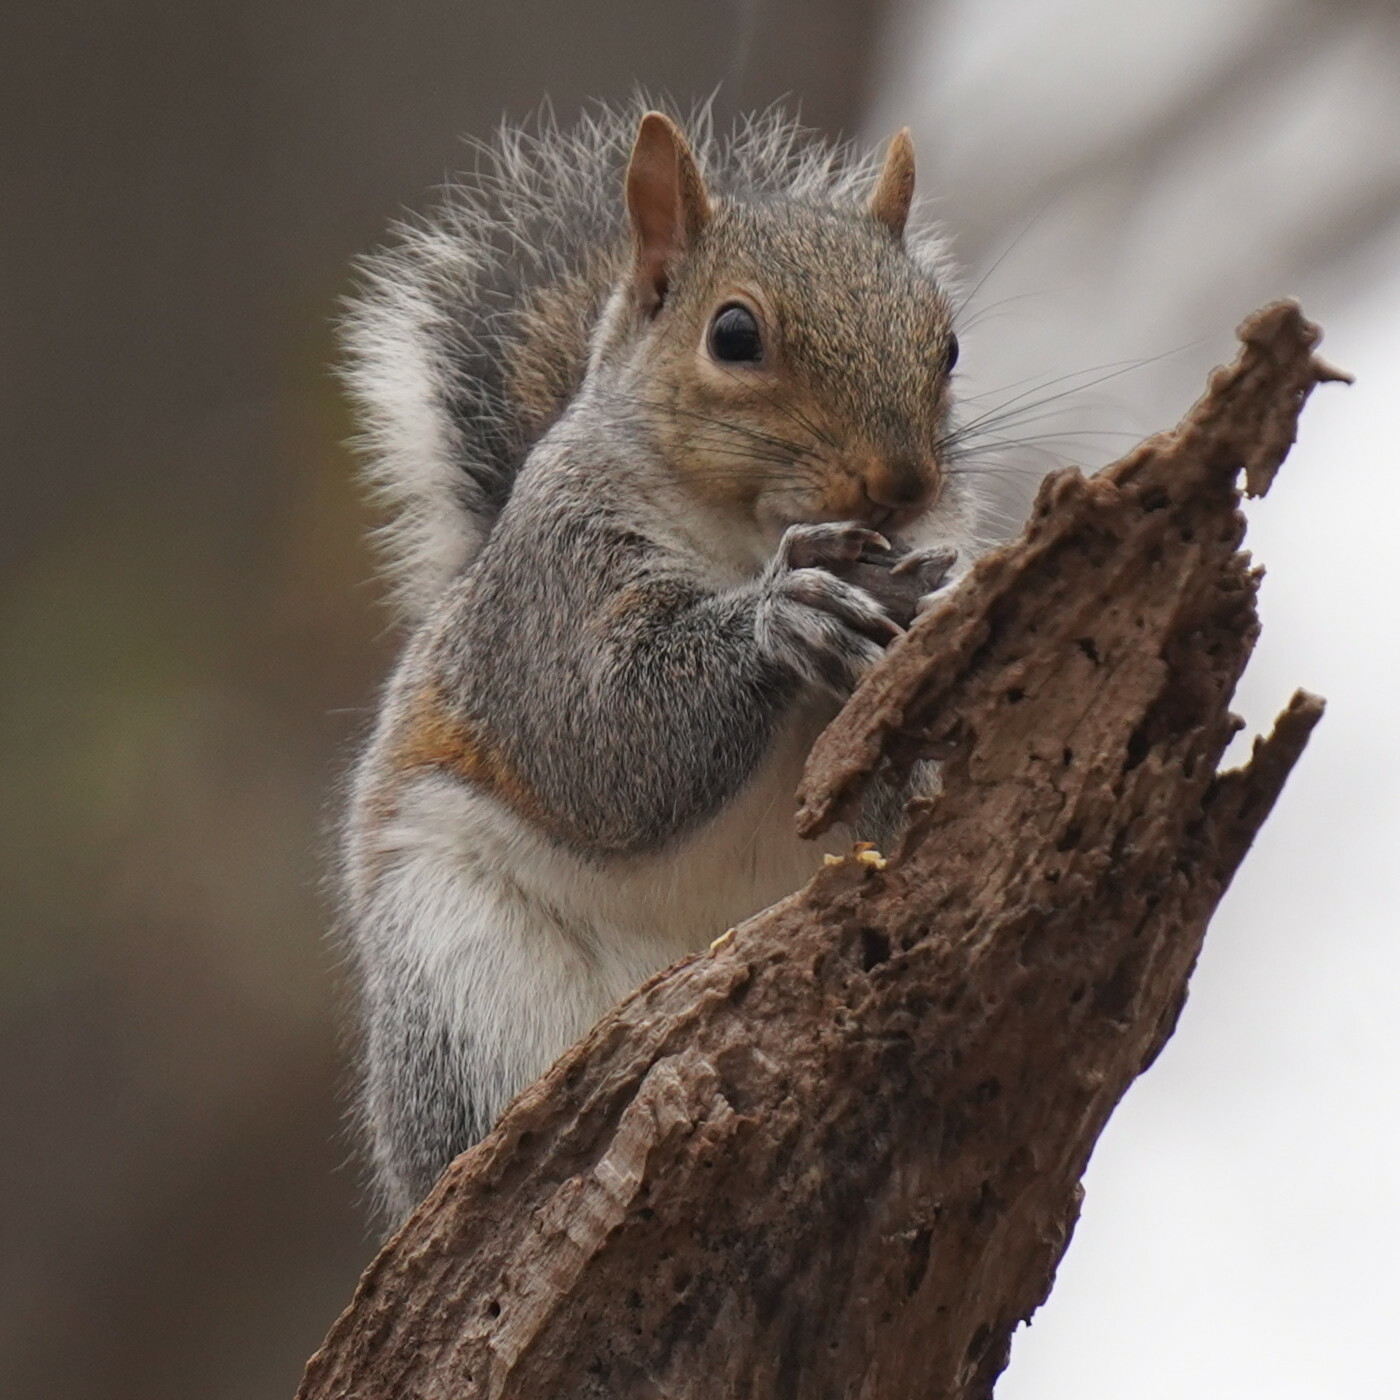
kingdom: Animalia
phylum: Chordata
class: Mammalia
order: Rodentia
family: Sciuridae
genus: Sciurus
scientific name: Sciurus carolinensis
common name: Eastern gray squirrel
